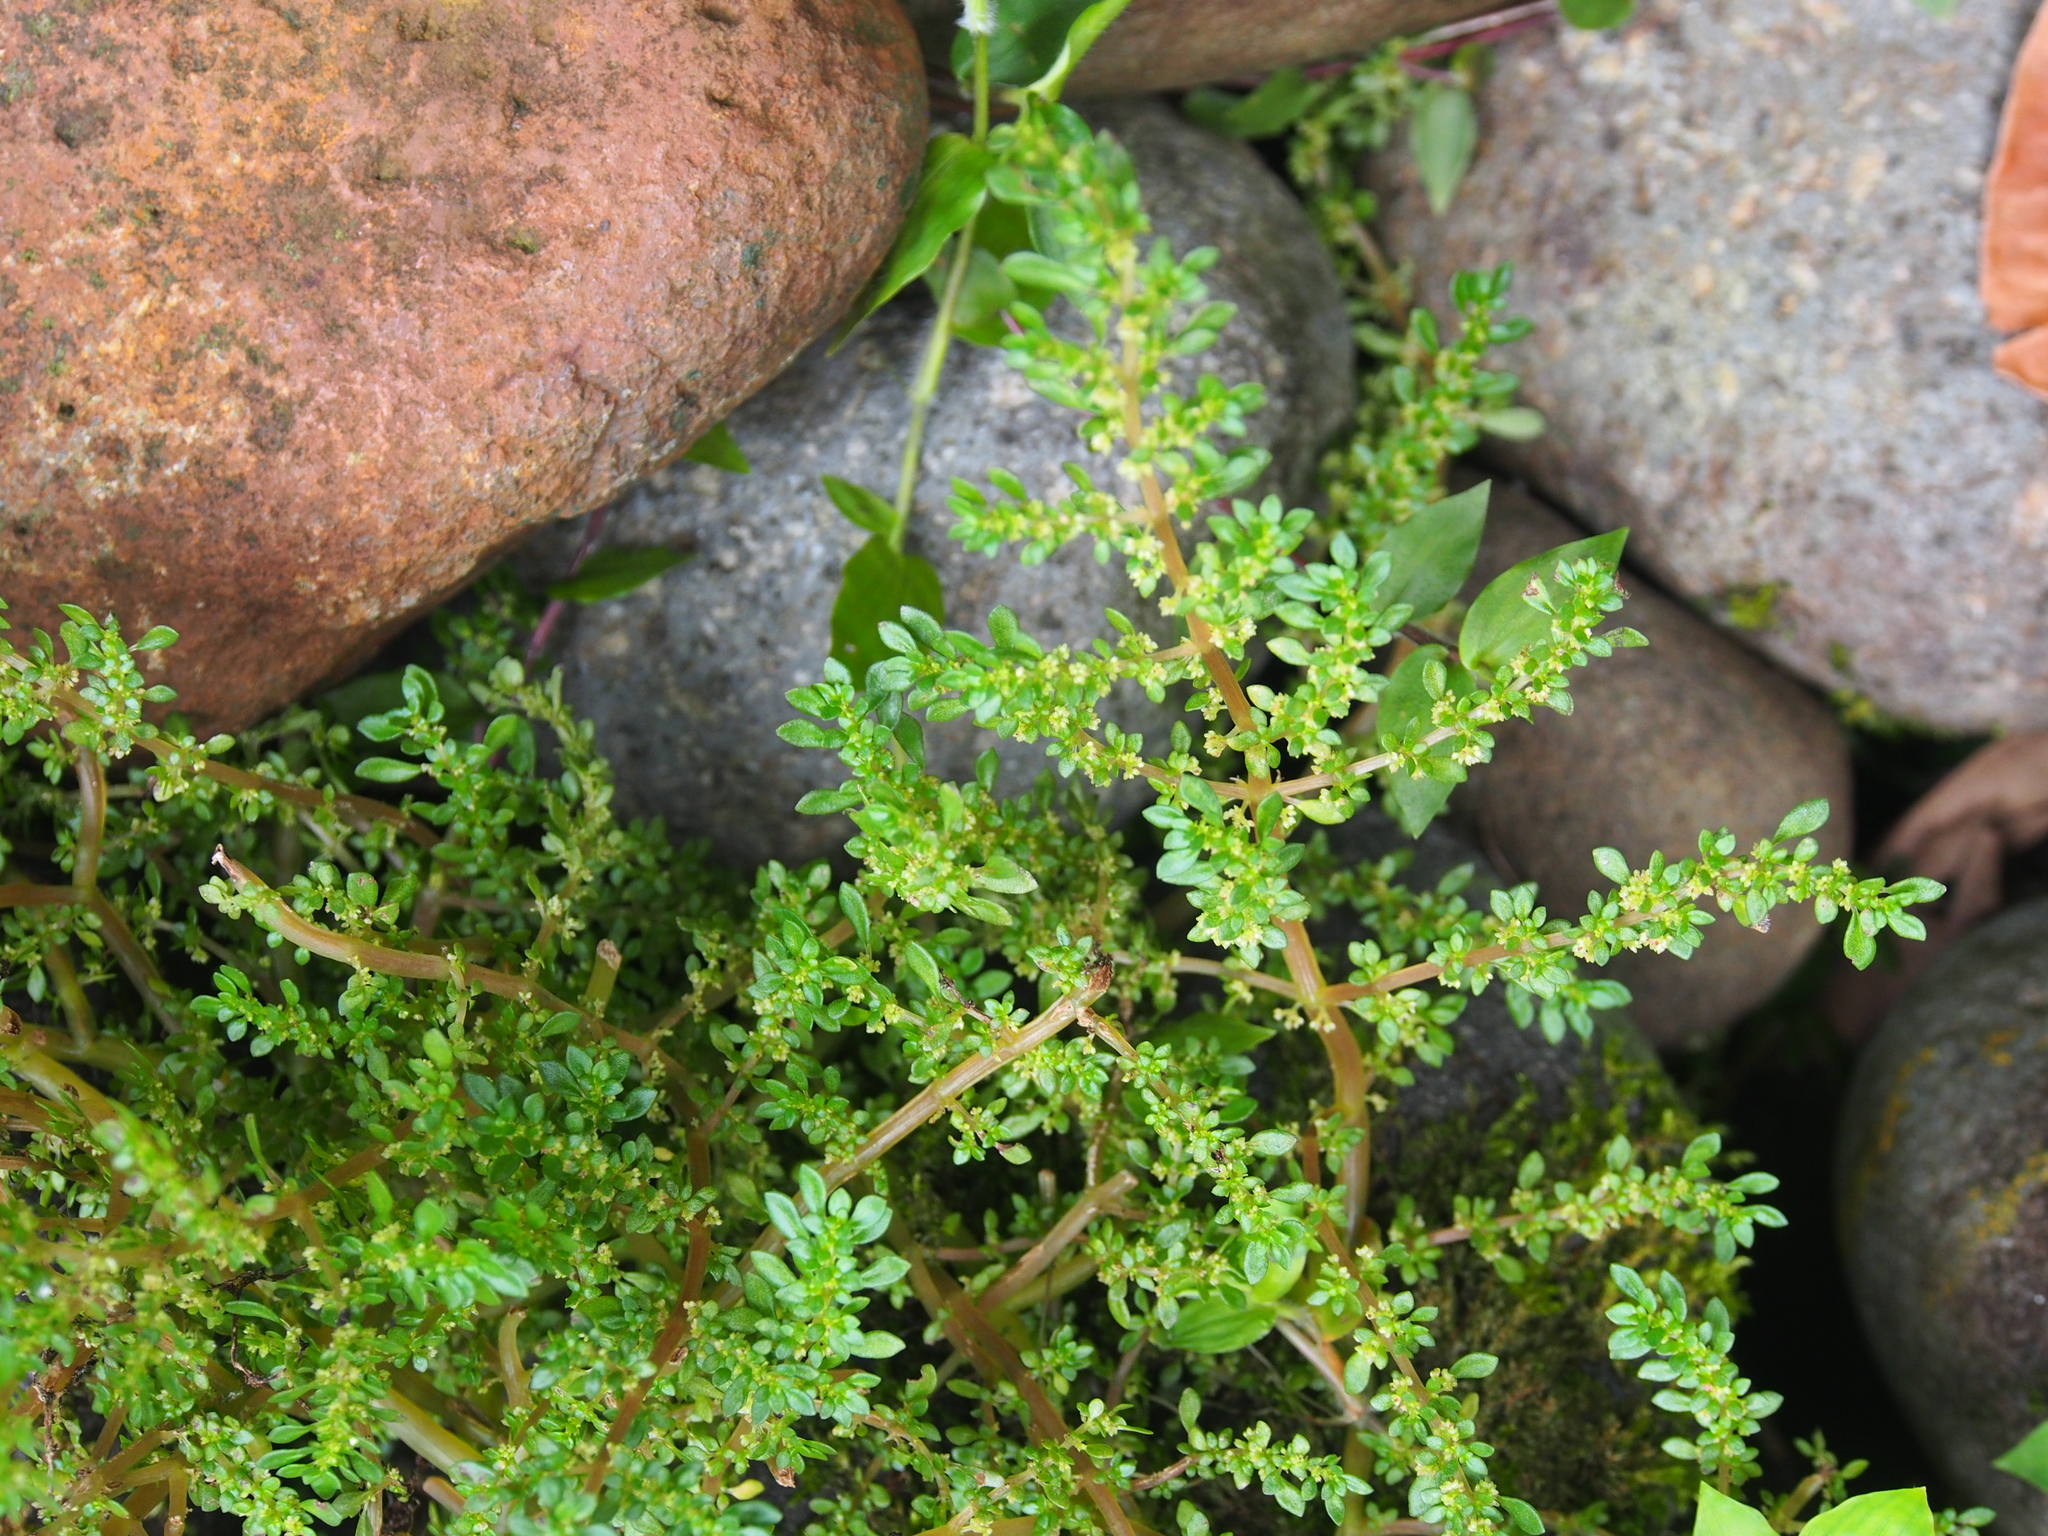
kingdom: Plantae
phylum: Tracheophyta
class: Magnoliopsida
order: Rosales
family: Urticaceae
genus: Pilea
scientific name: Pilea microphylla
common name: Artillery-plant
